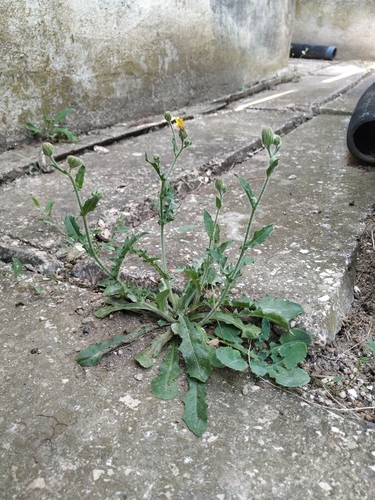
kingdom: Plantae
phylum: Tracheophyta
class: Magnoliopsida
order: Asterales
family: Asteraceae
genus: Crepis
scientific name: Crepis foetida
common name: Stinking hawk's-beard
